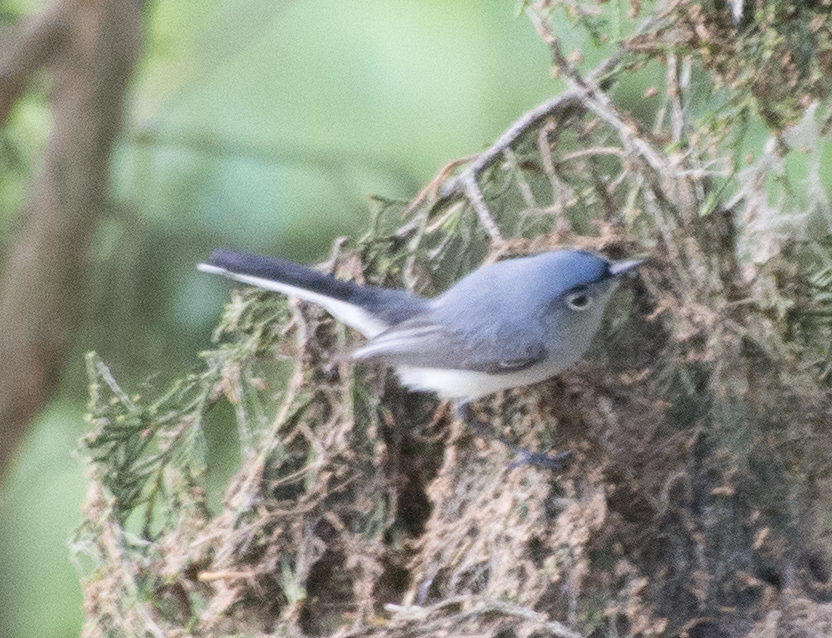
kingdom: Animalia
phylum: Chordata
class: Aves
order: Passeriformes
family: Polioptilidae
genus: Polioptila
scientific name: Polioptila caerulea
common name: Blue-gray gnatcatcher
